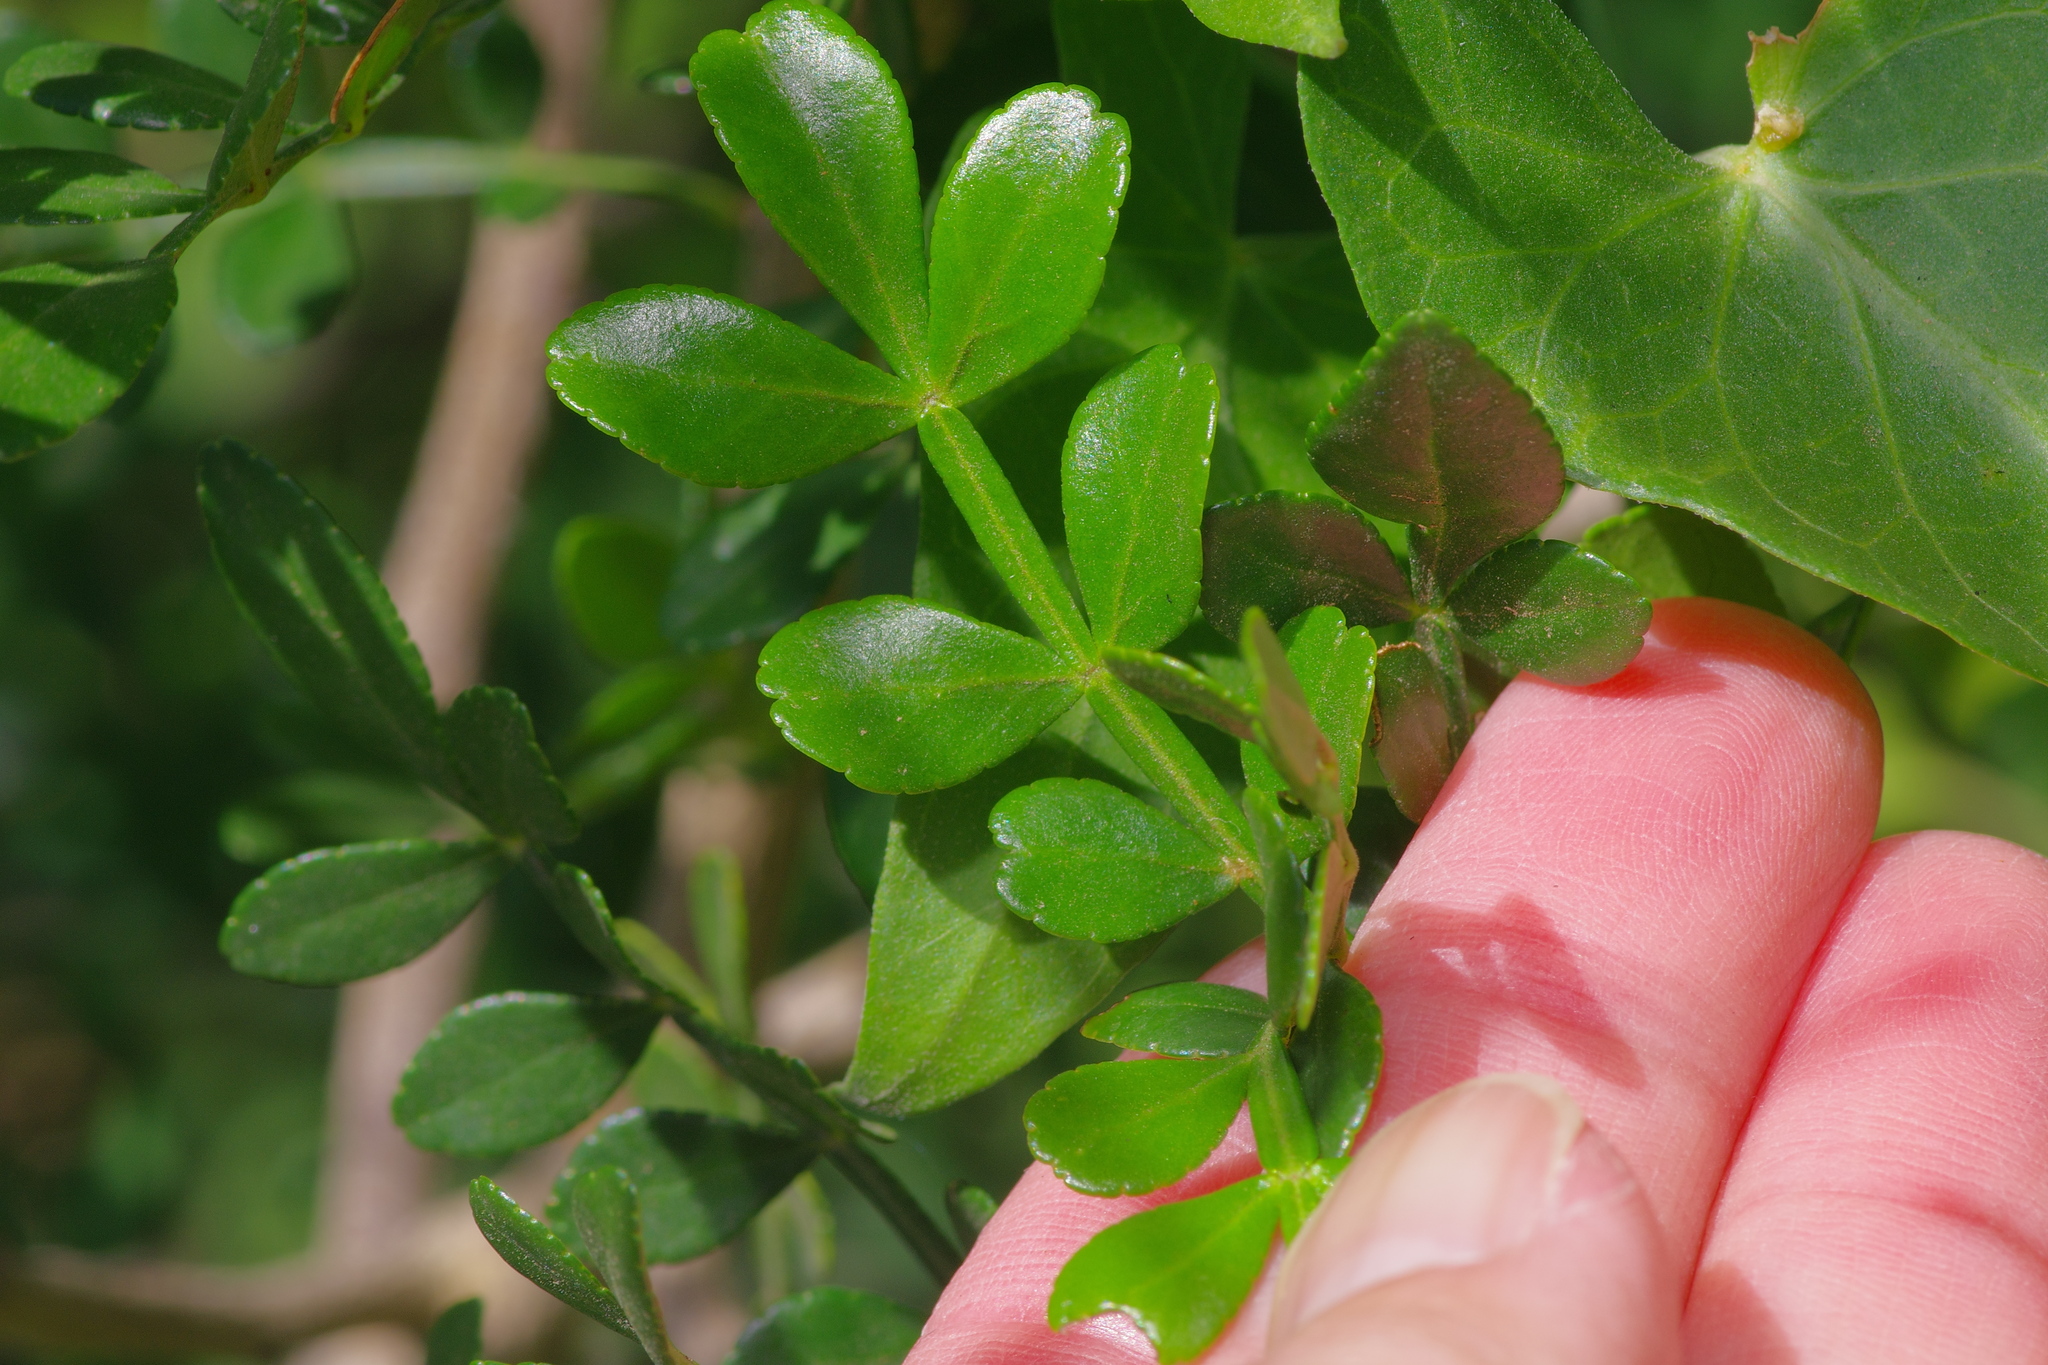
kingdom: Plantae
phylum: Tracheophyta
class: Magnoliopsida
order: Sapindales
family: Rutaceae
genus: Zanthoxylum
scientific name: Zanthoxylum fagara
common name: Lime prickly-ash
